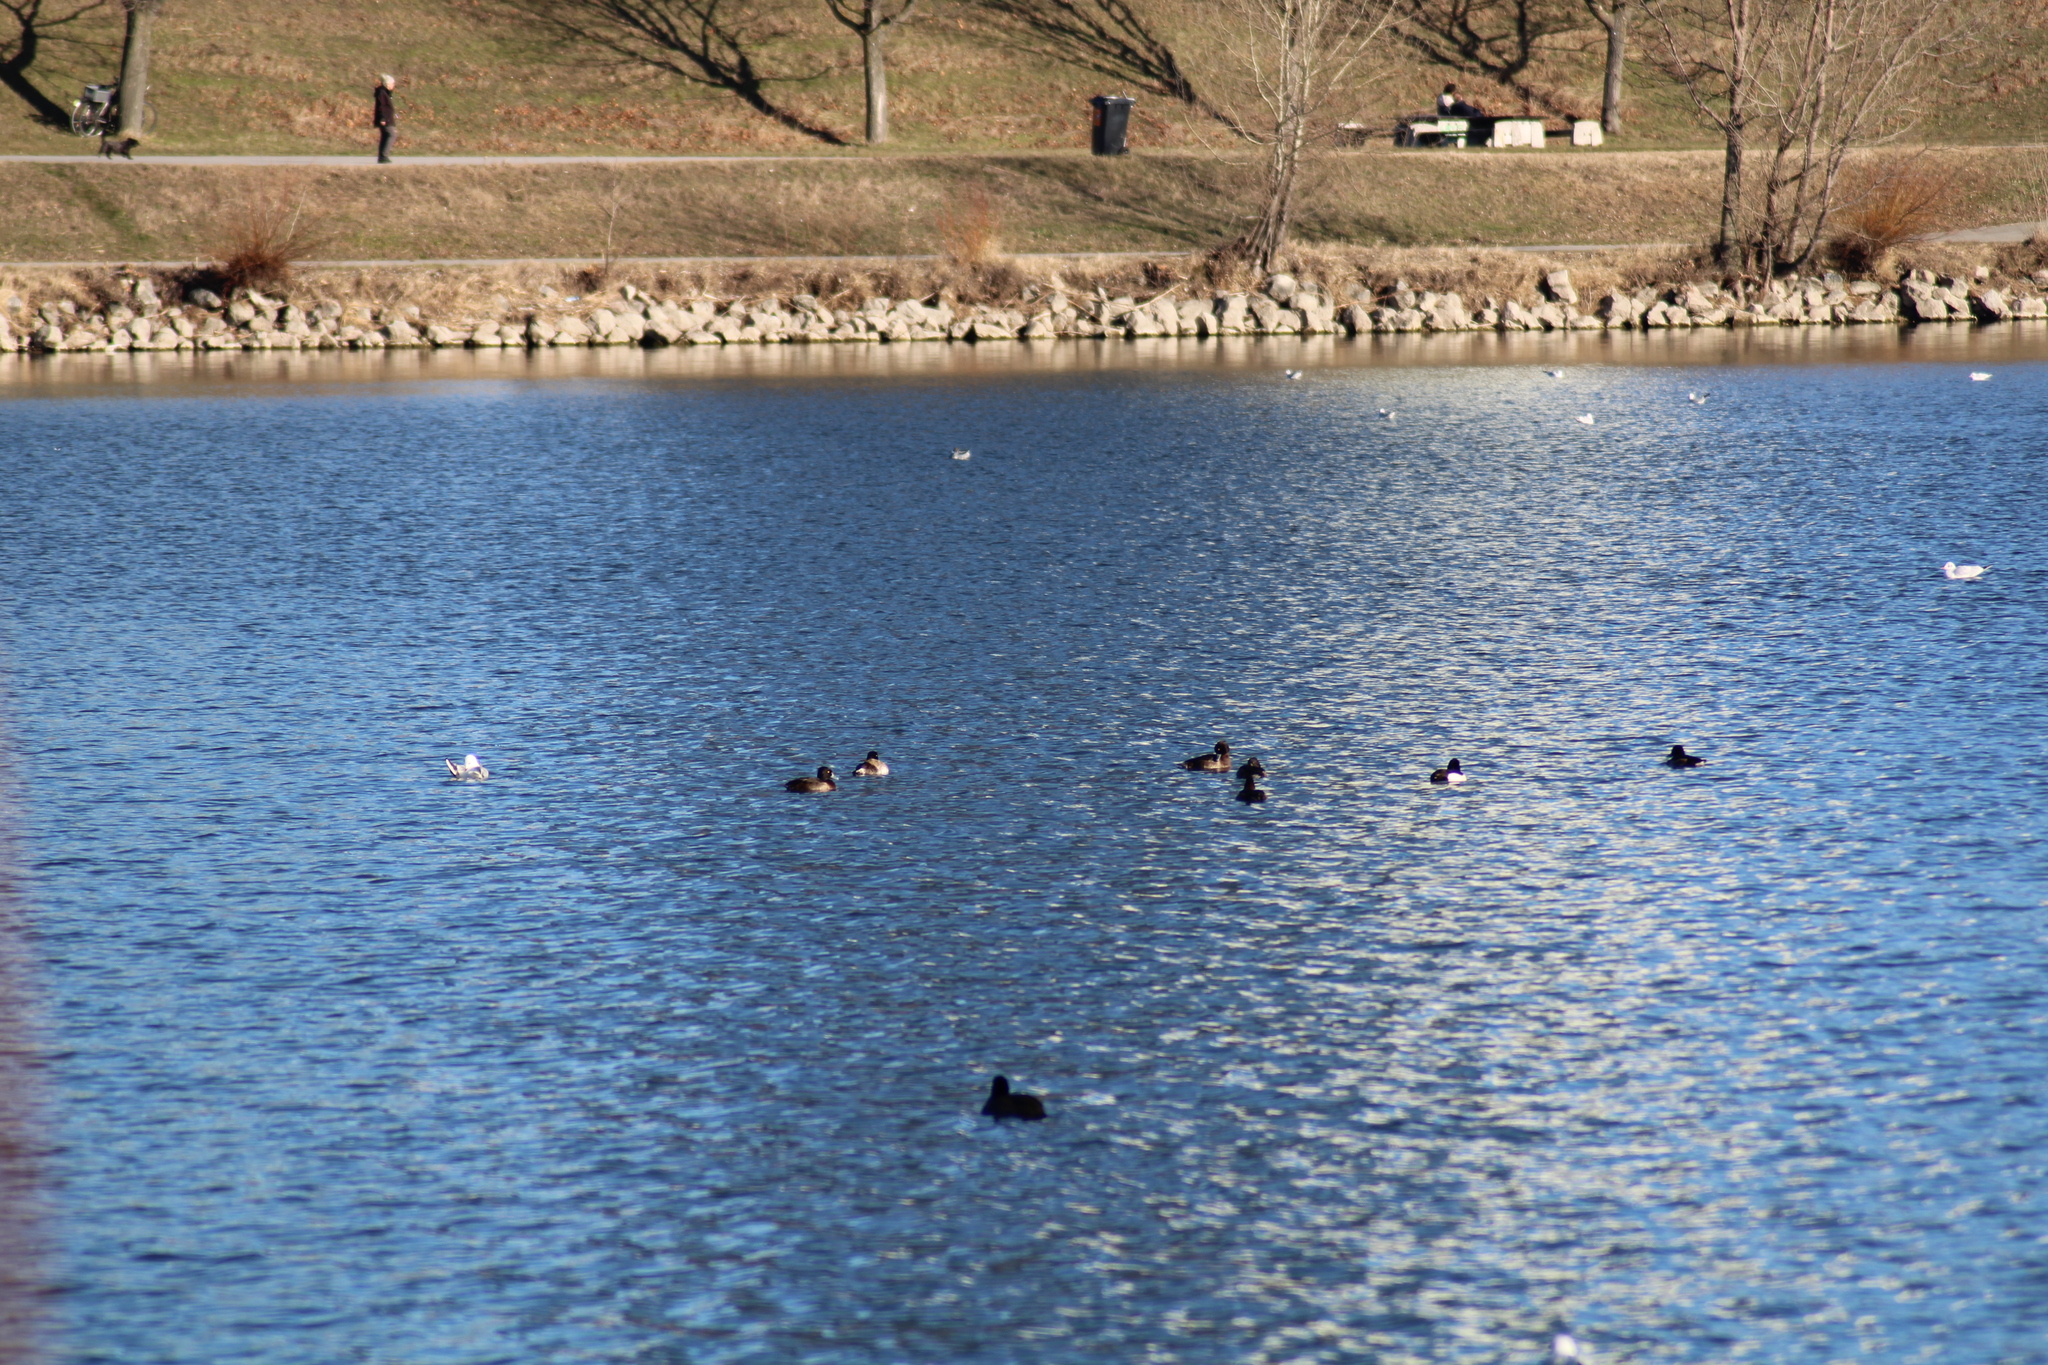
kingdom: Animalia
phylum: Chordata
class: Aves
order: Anseriformes
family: Anatidae
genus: Aythya
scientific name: Aythya fuligula
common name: Tufted duck
